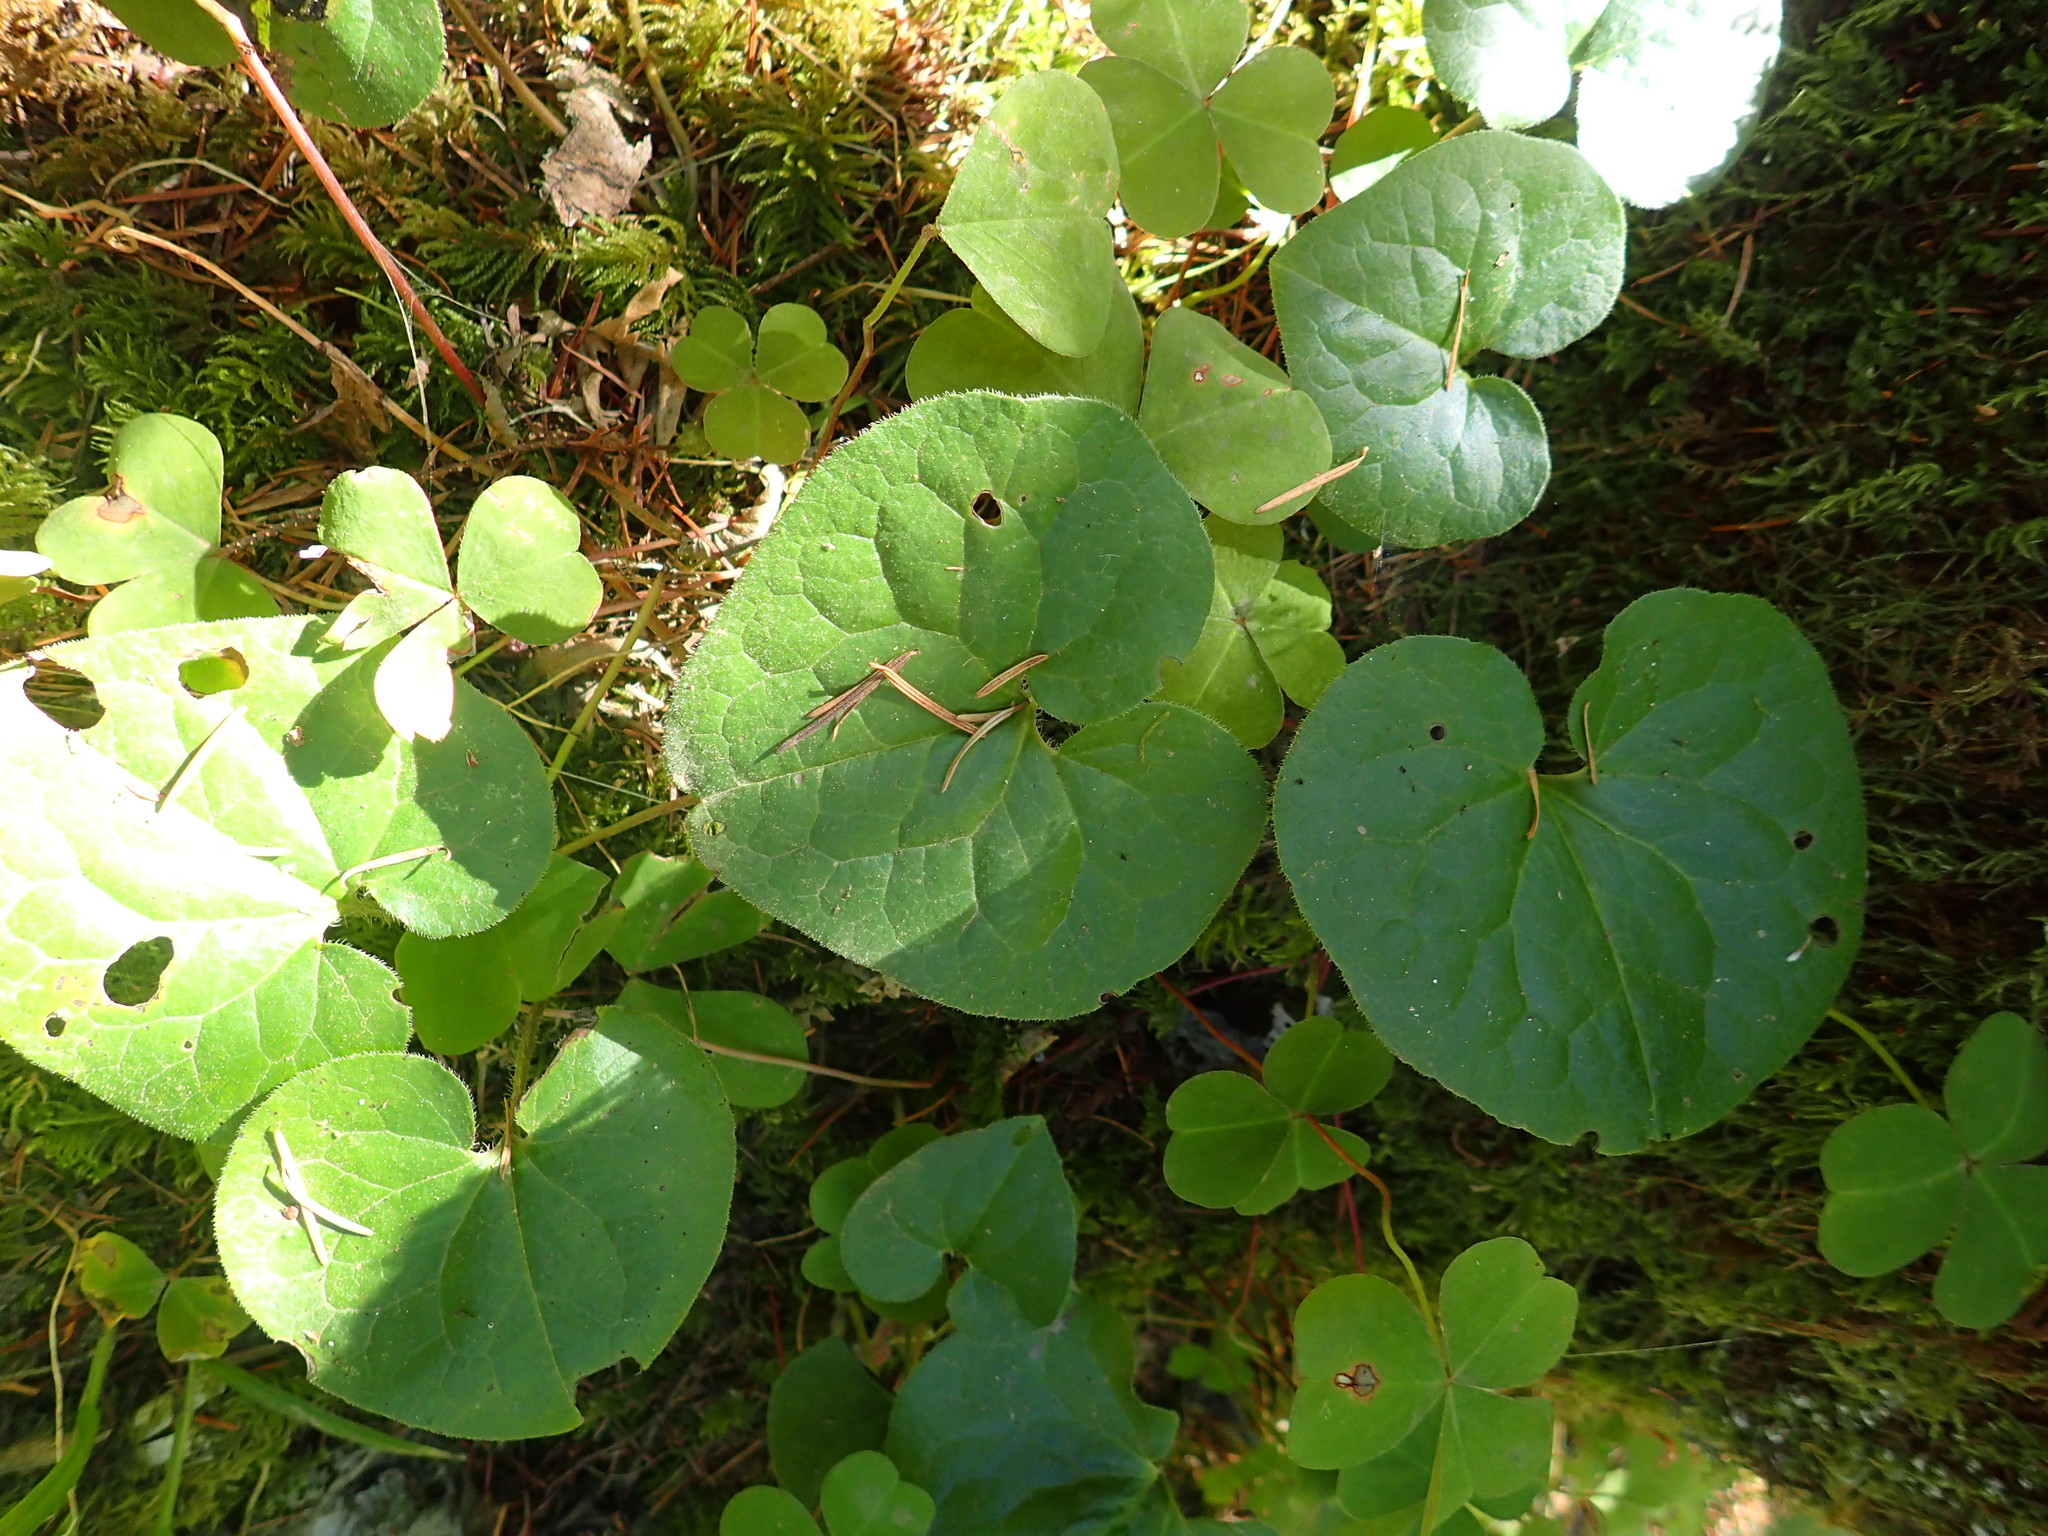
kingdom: Plantae
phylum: Tracheophyta
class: Magnoliopsida
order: Piperales
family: Aristolochiaceae
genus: Asarum
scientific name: Asarum caudatum
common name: Wild ginger
